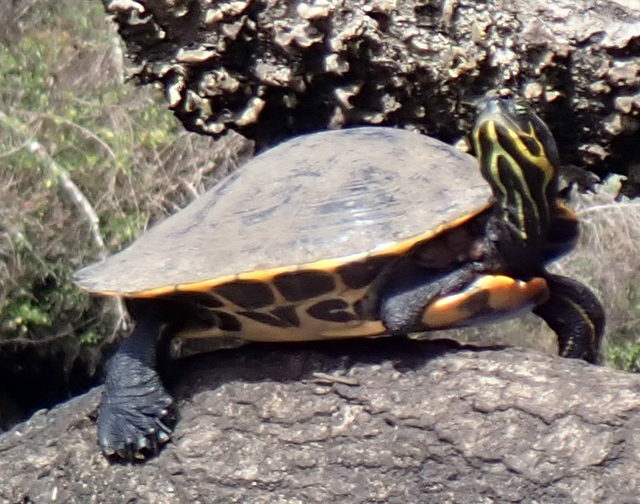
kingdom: Animalia
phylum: Chordata
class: Testudines
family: Emydidae
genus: Pseudemys
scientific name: Pseudemys concinna
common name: Eastern river cooter
